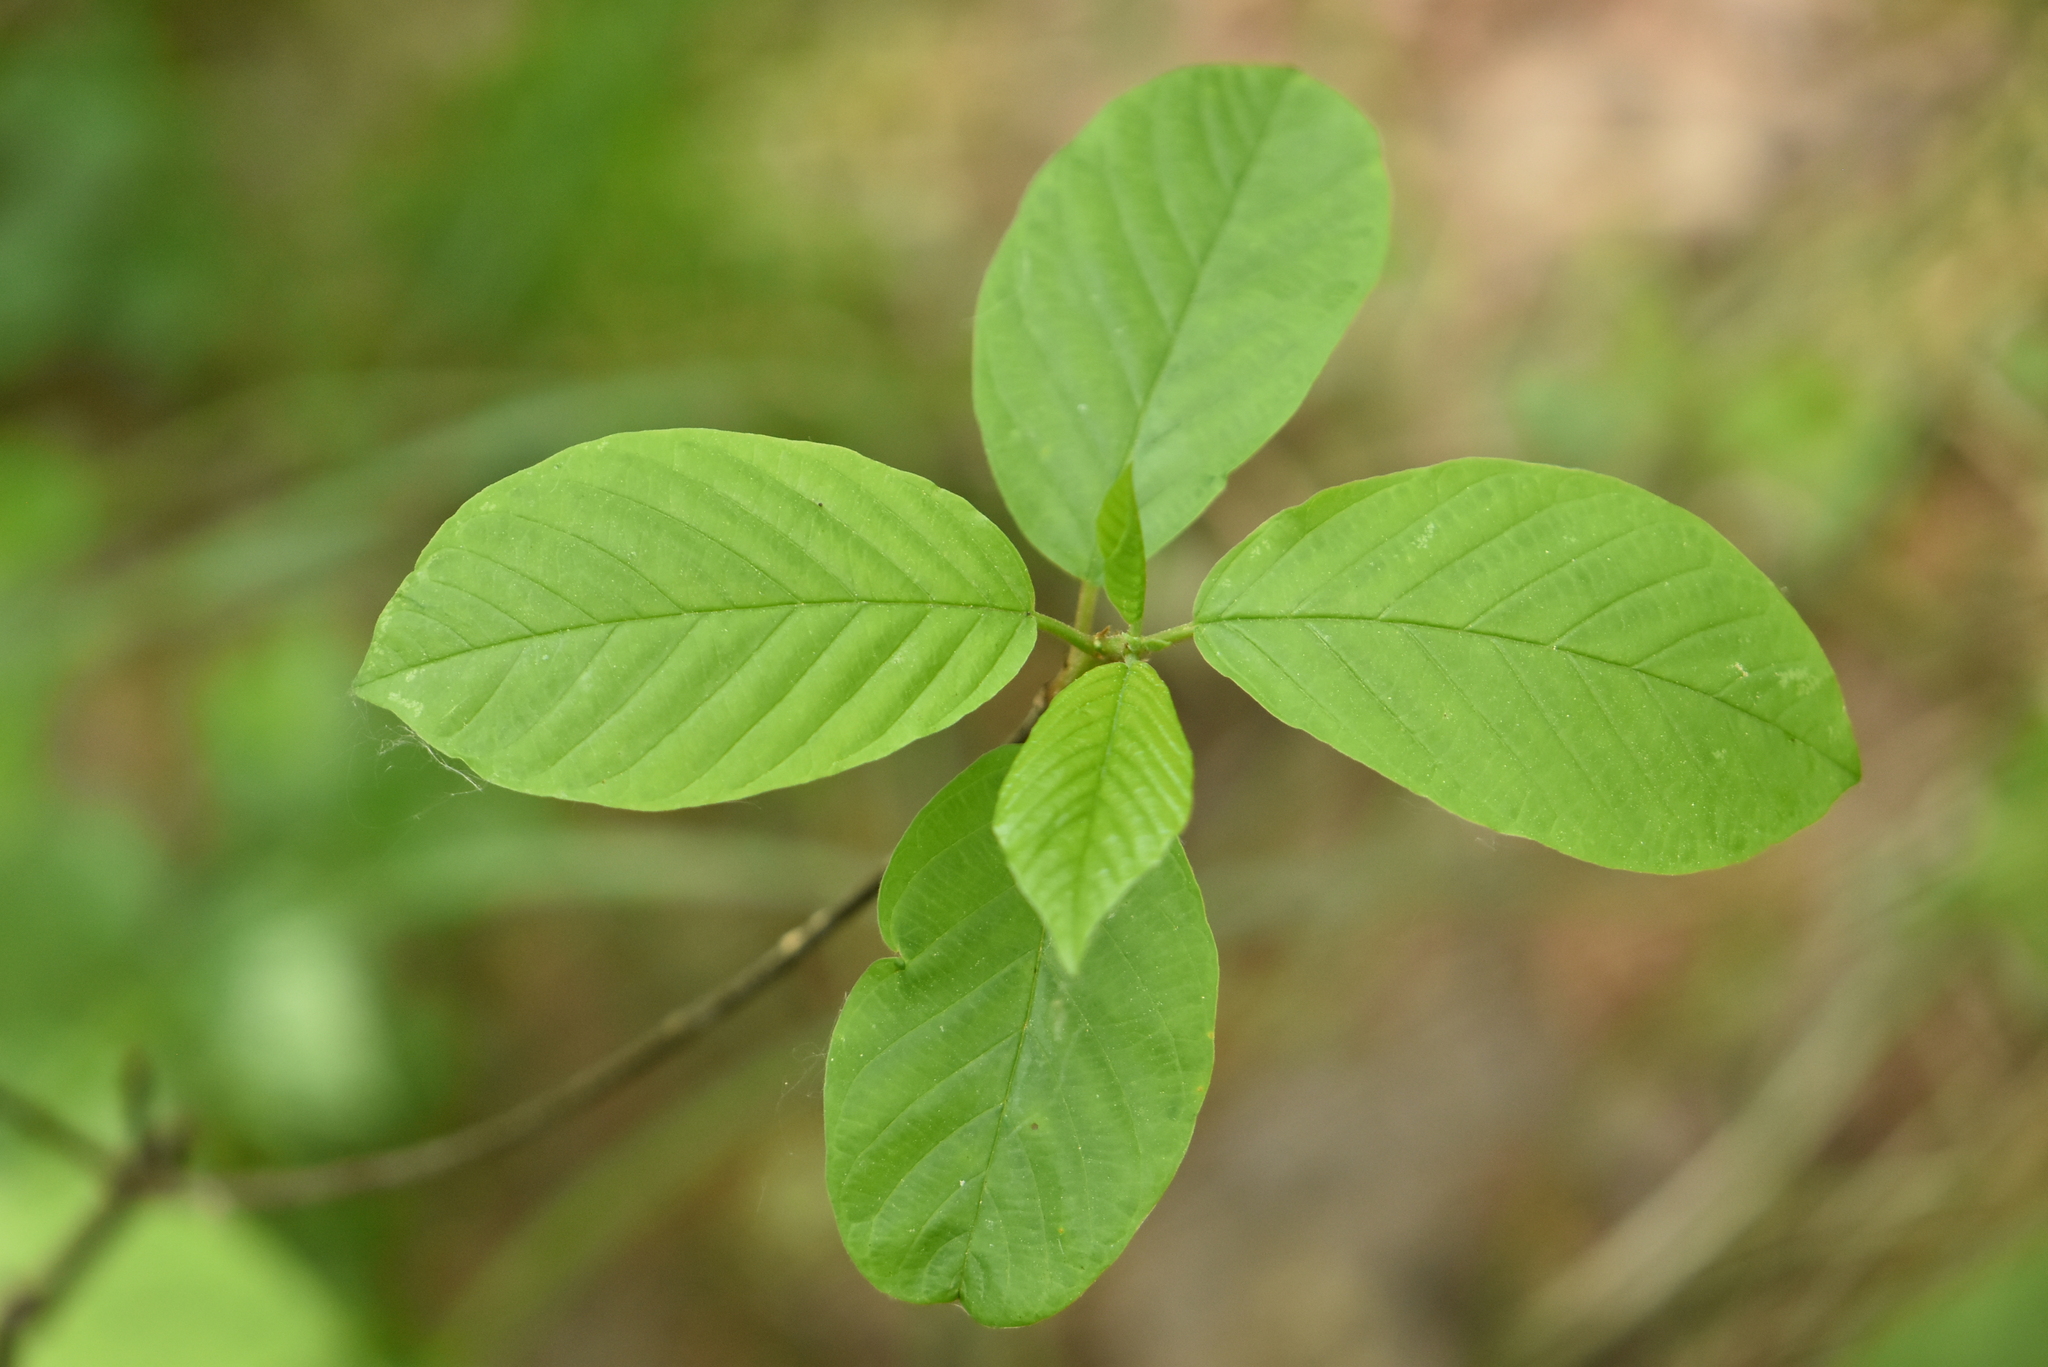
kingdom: Plantae
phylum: Tracheophyta
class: Magnoliopsida
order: Rosales
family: Rhamnaceae
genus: Frangula
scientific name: Frangula alnus
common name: Alder buckthorn
